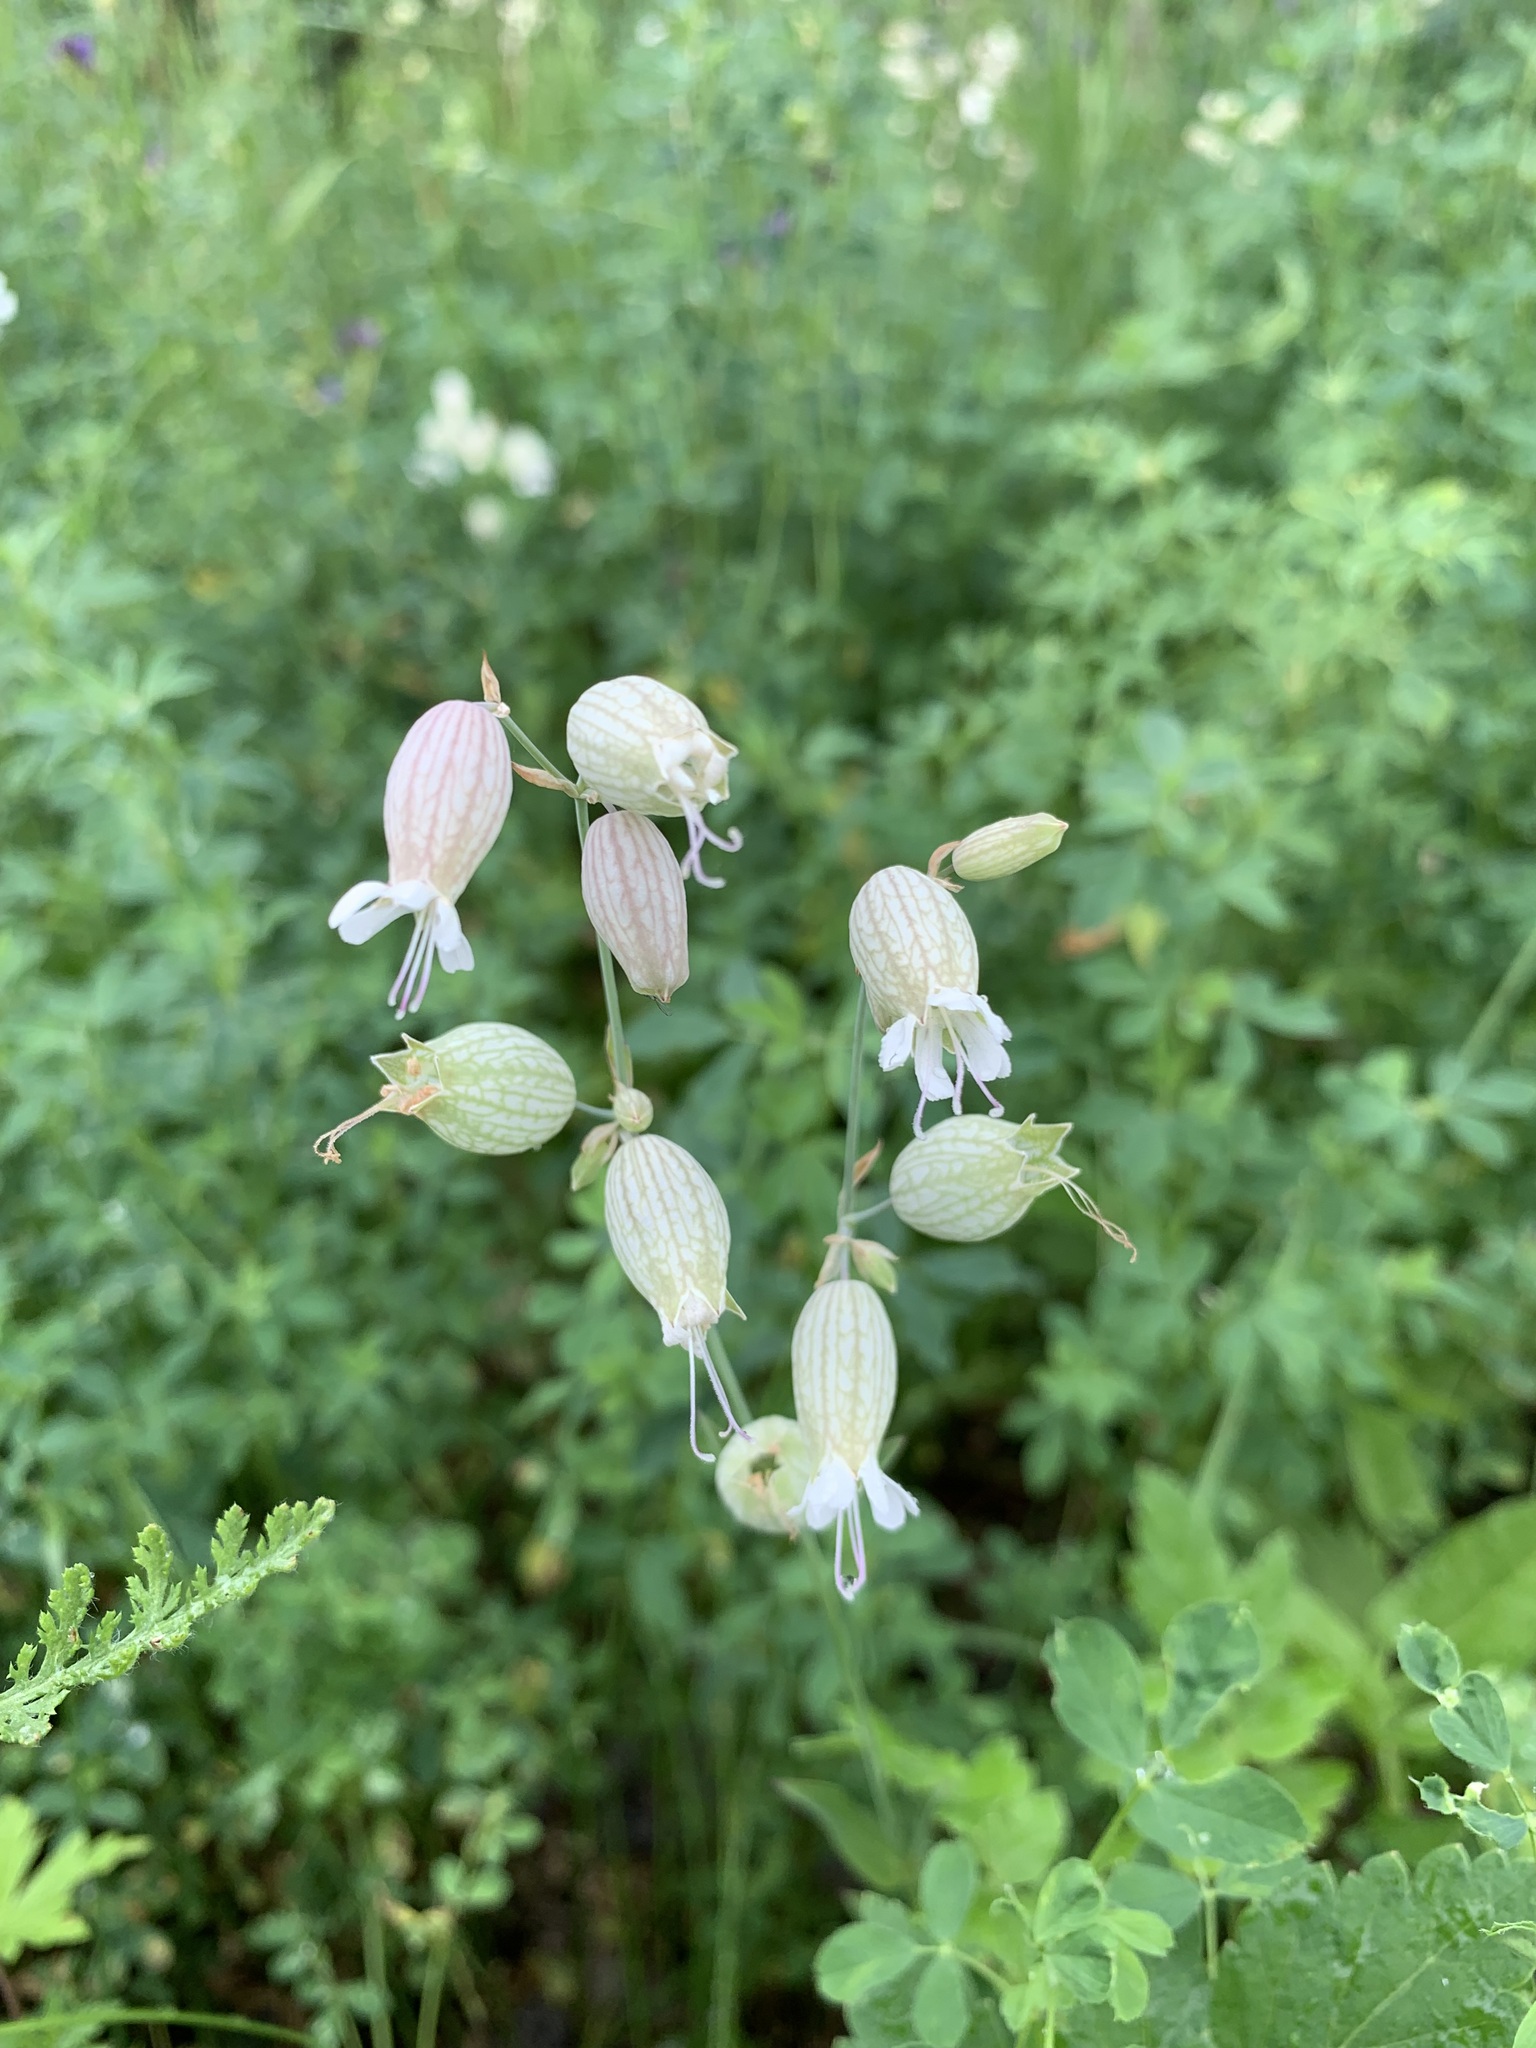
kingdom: Plantae
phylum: Tracheophyta
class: Magnoliopsida
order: Caryophyllales
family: Caryophyllaceae
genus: Silene
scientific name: Silene vulgaris
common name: Bladder campion
